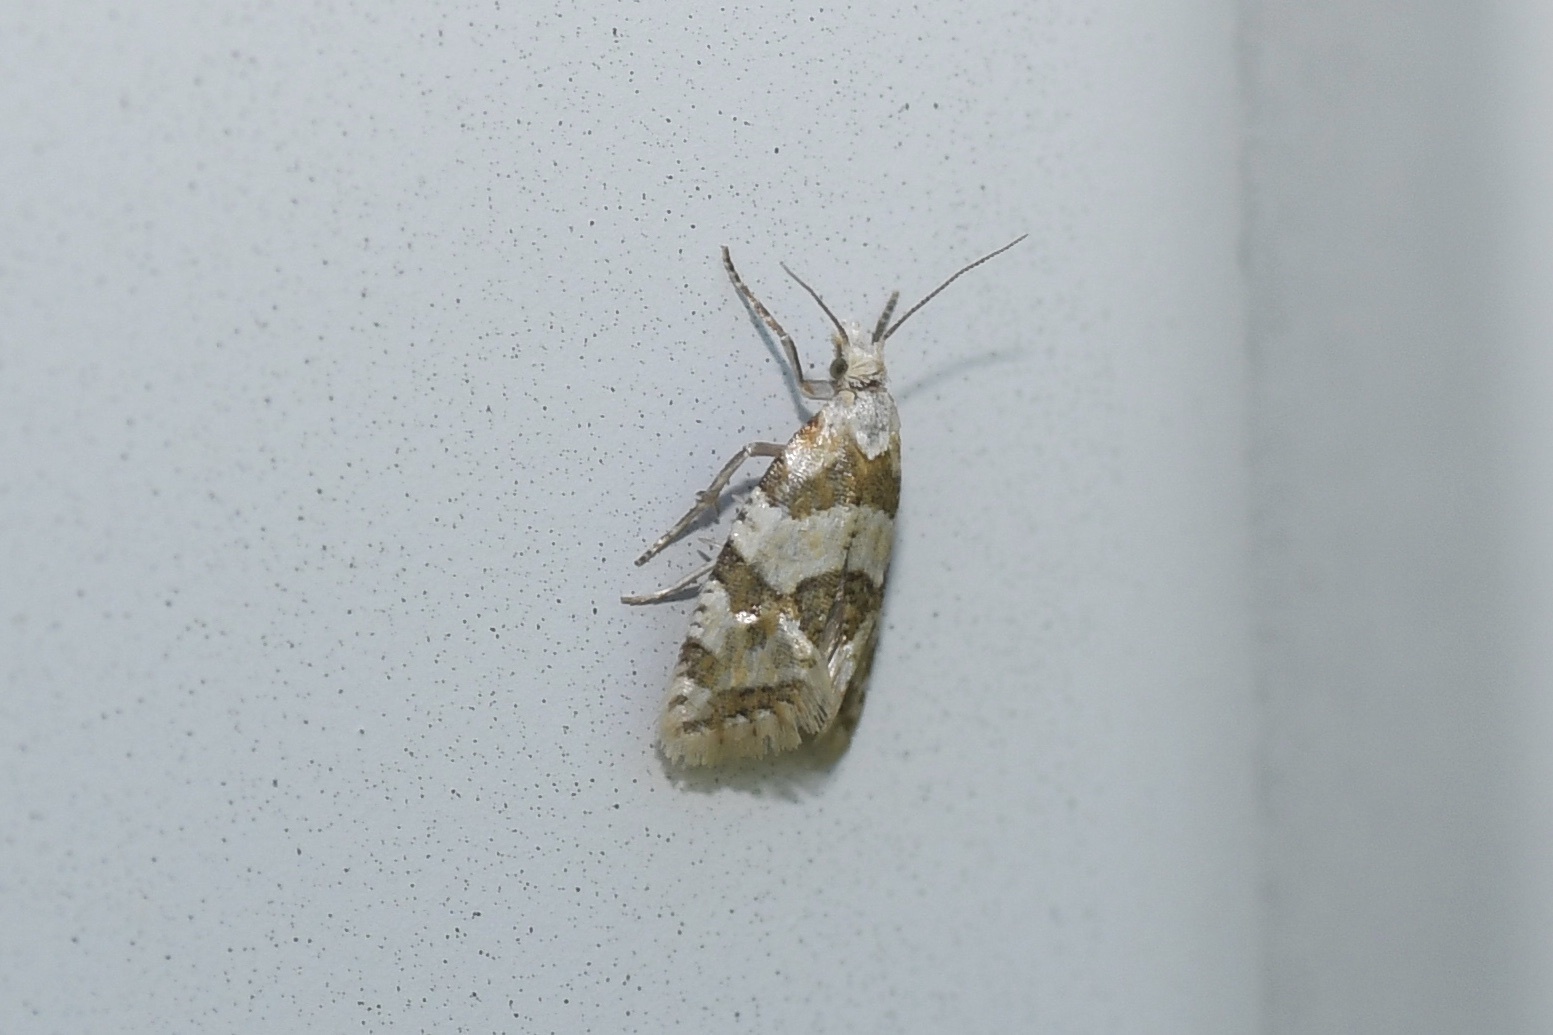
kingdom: Animalia
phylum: Arthropoda
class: Insecta
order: Lepidoptera
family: Tortricidae
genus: Aethes
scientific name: Aethes argentilimitana
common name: Silver-bordered aethes
